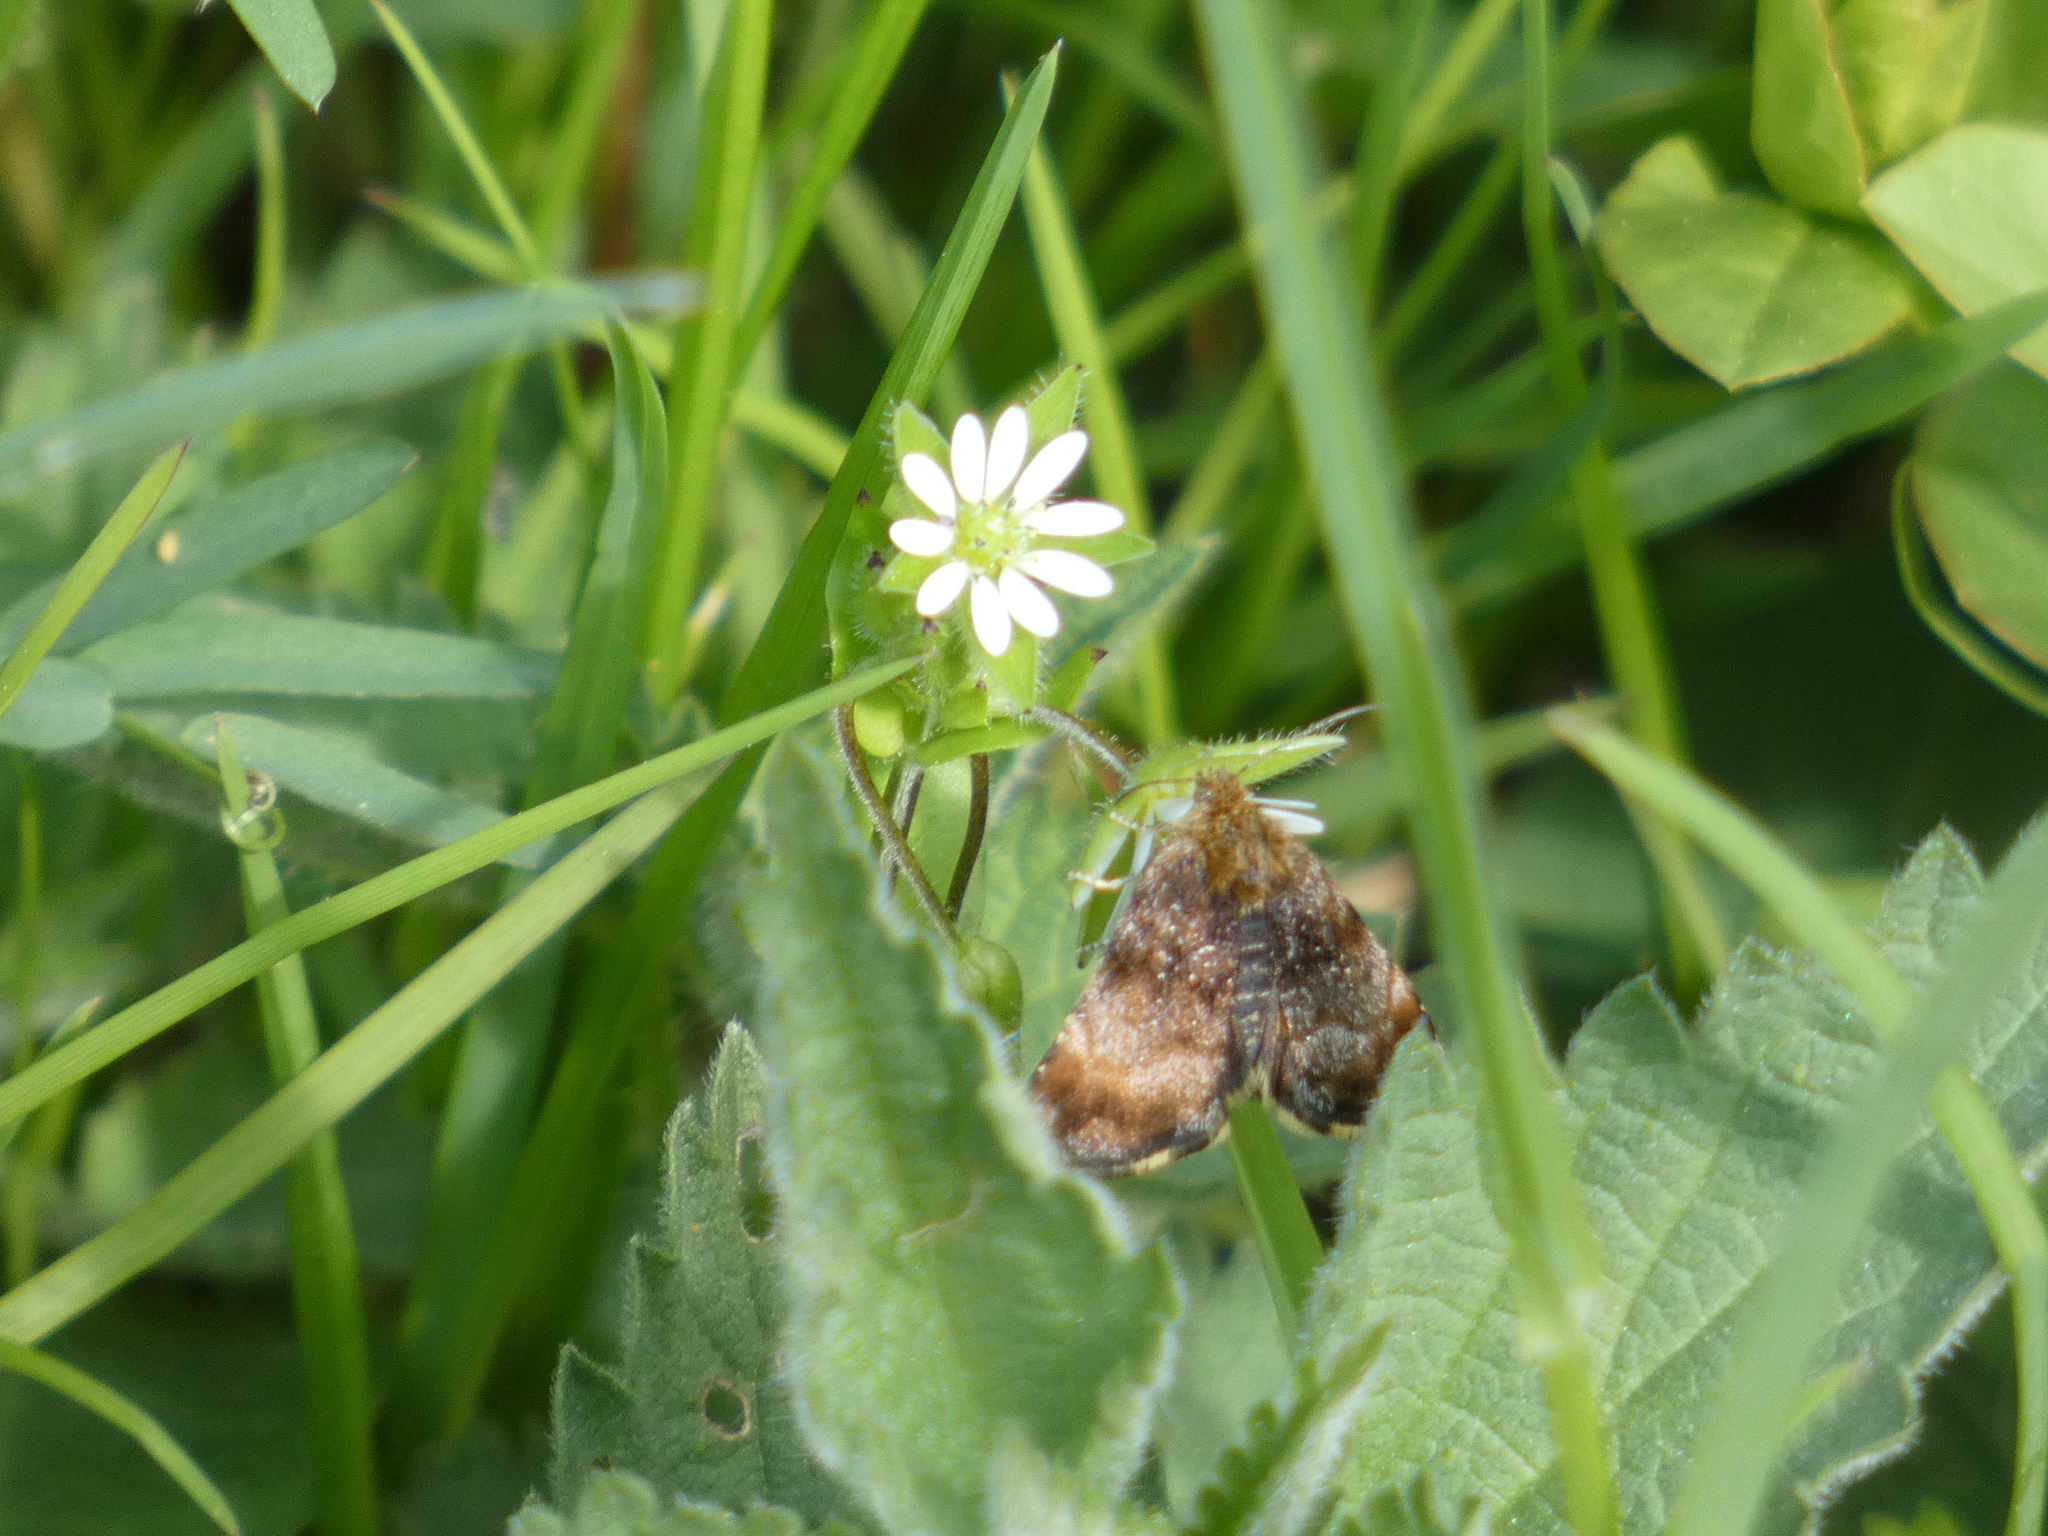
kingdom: Animalia
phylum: Arthropoda
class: Insecta
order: Lepidoptera
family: Noctuidae
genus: Panemeria
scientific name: Panemeria tenebrata
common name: Small yellow underwing
